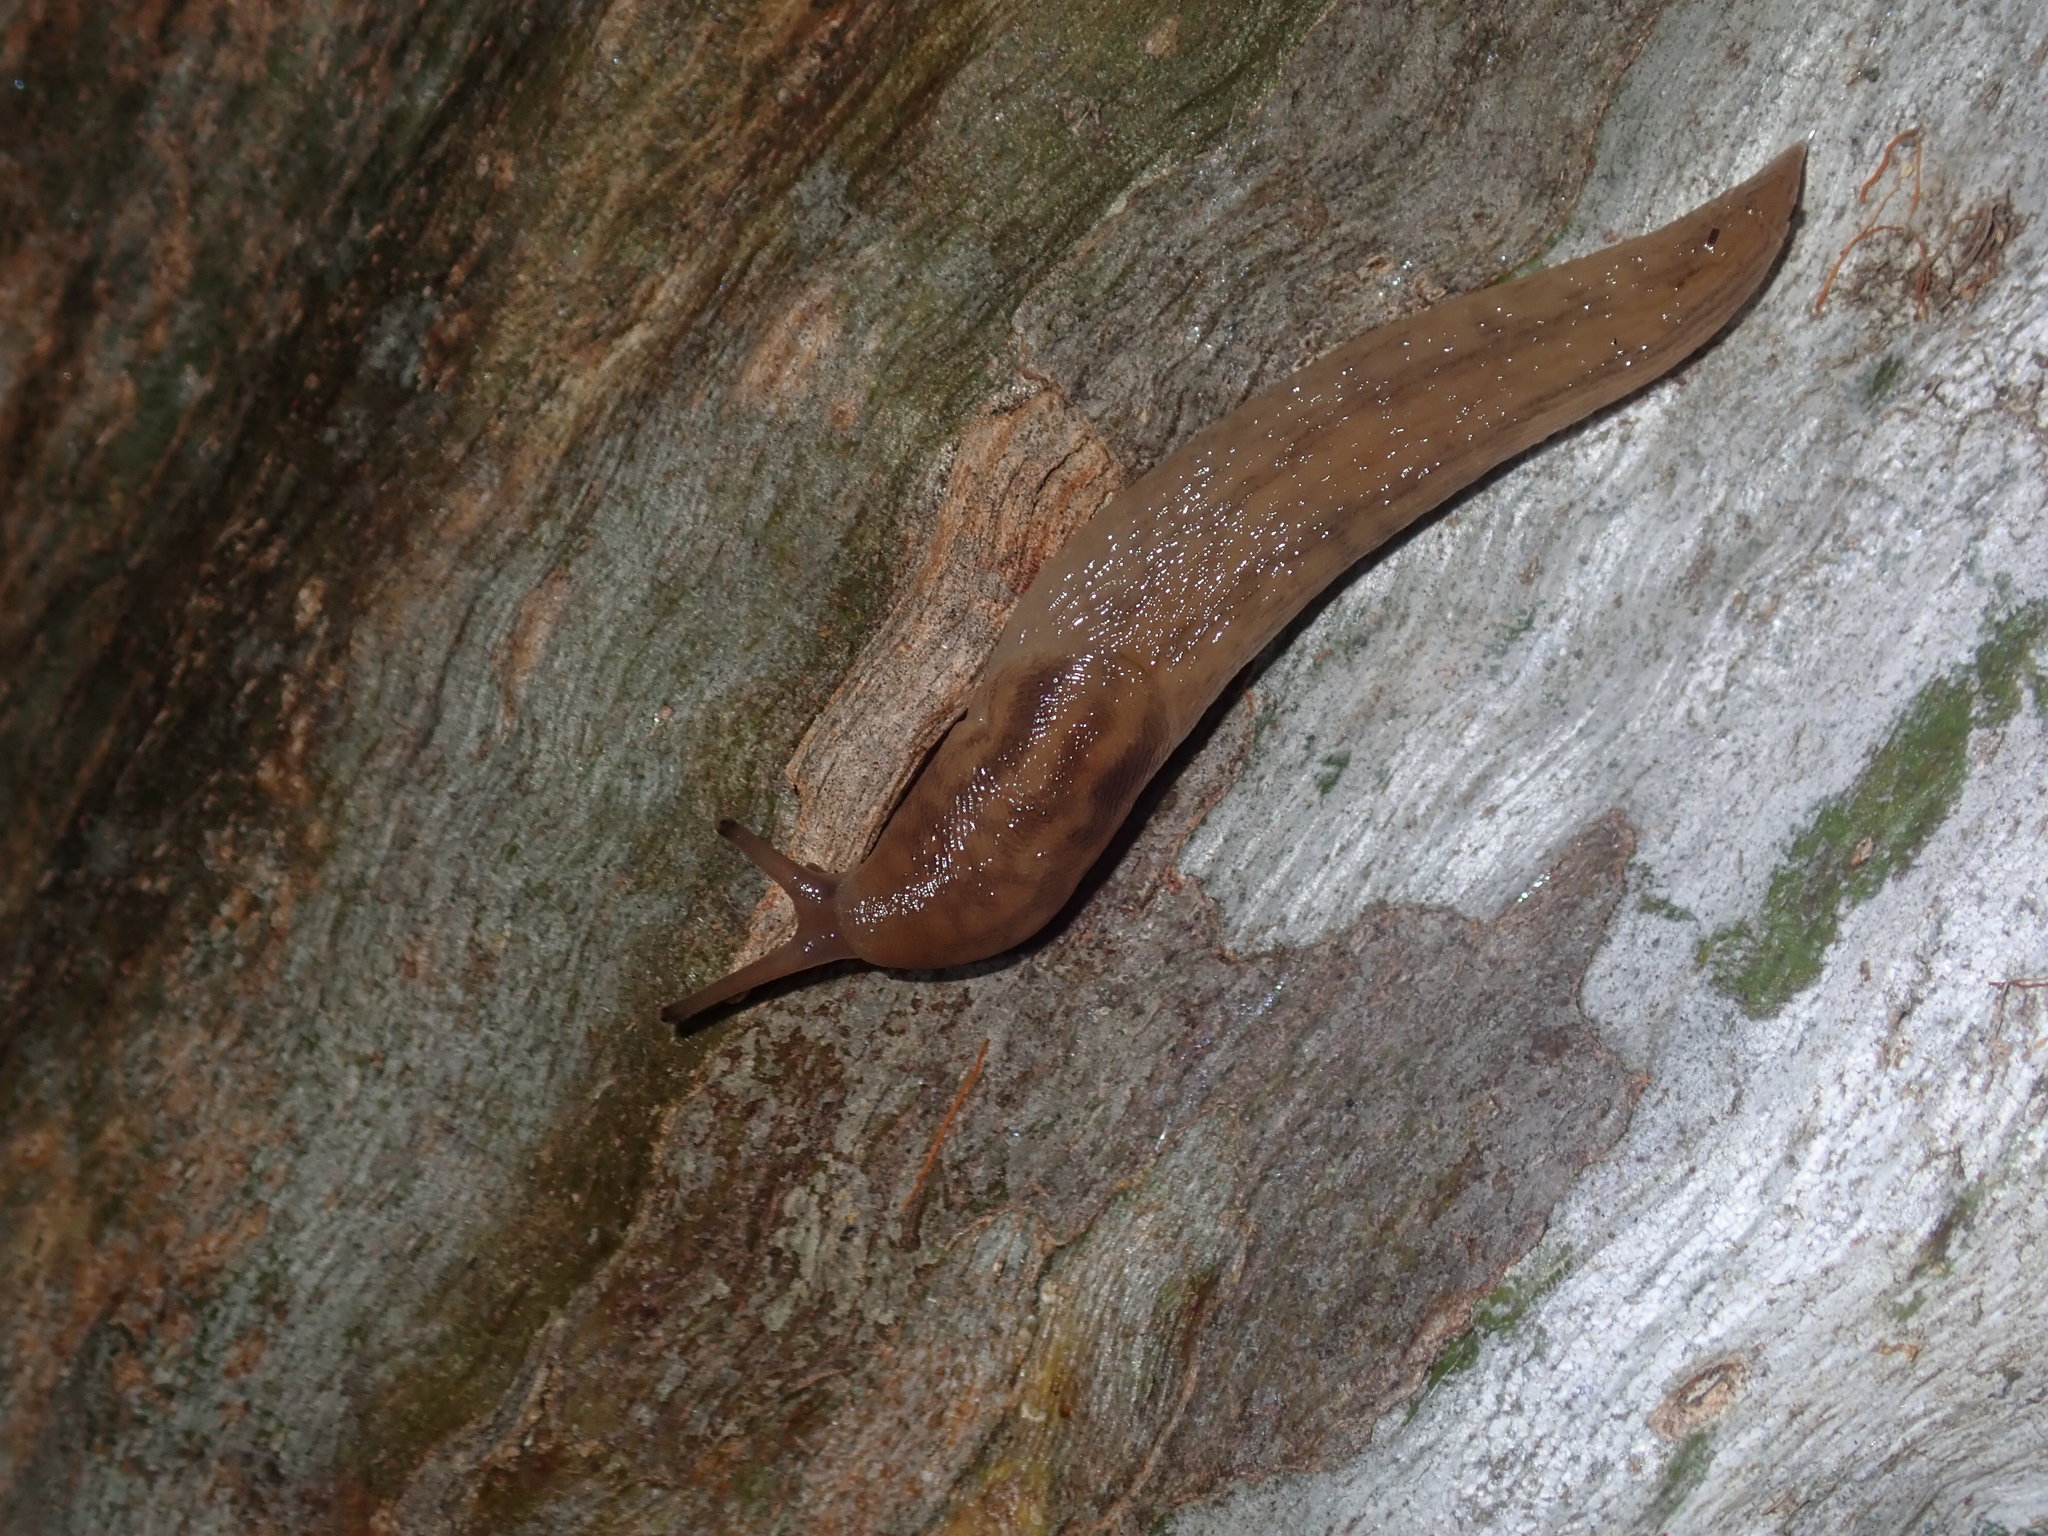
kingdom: Animalia
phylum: Mollusca
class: Gastropoda
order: Stylommatophora
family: Limacidae
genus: Ambigolimax
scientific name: Ambigolimax
